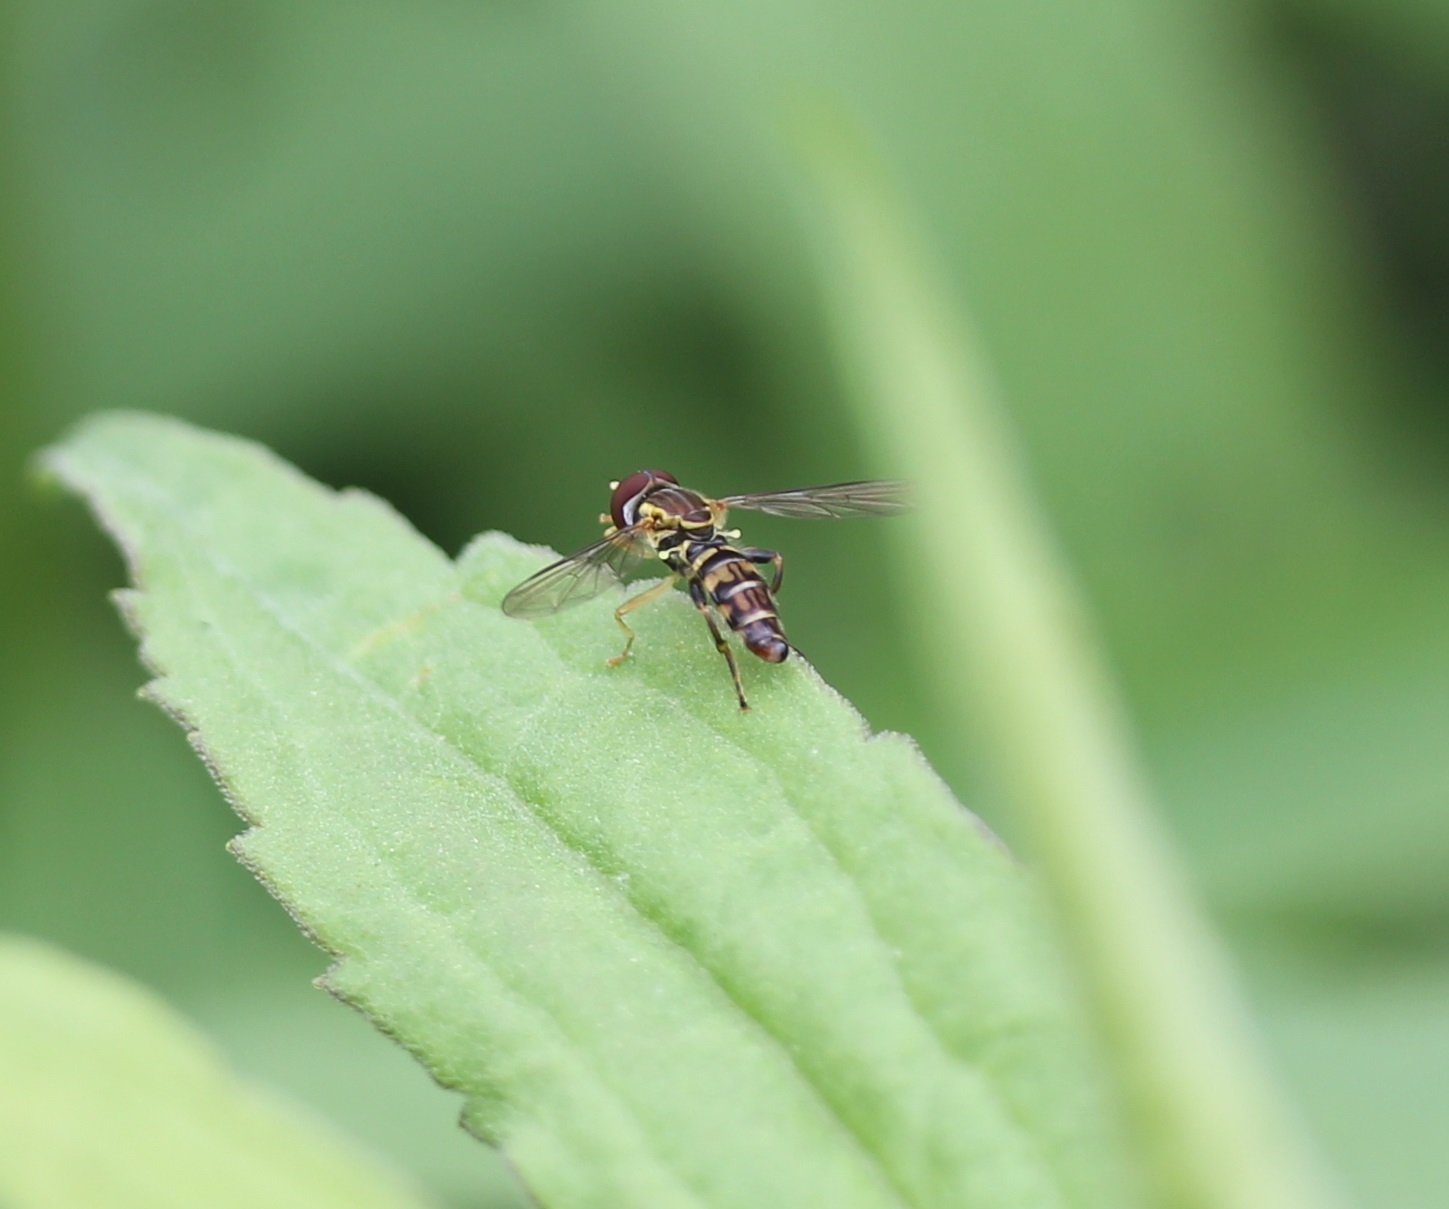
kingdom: Animalia
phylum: Arthropoda
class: Insecta
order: Diptera
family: Syrphidae
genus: Toxomerus
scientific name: Toxomerus geminatus
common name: Eastern calligrapher
